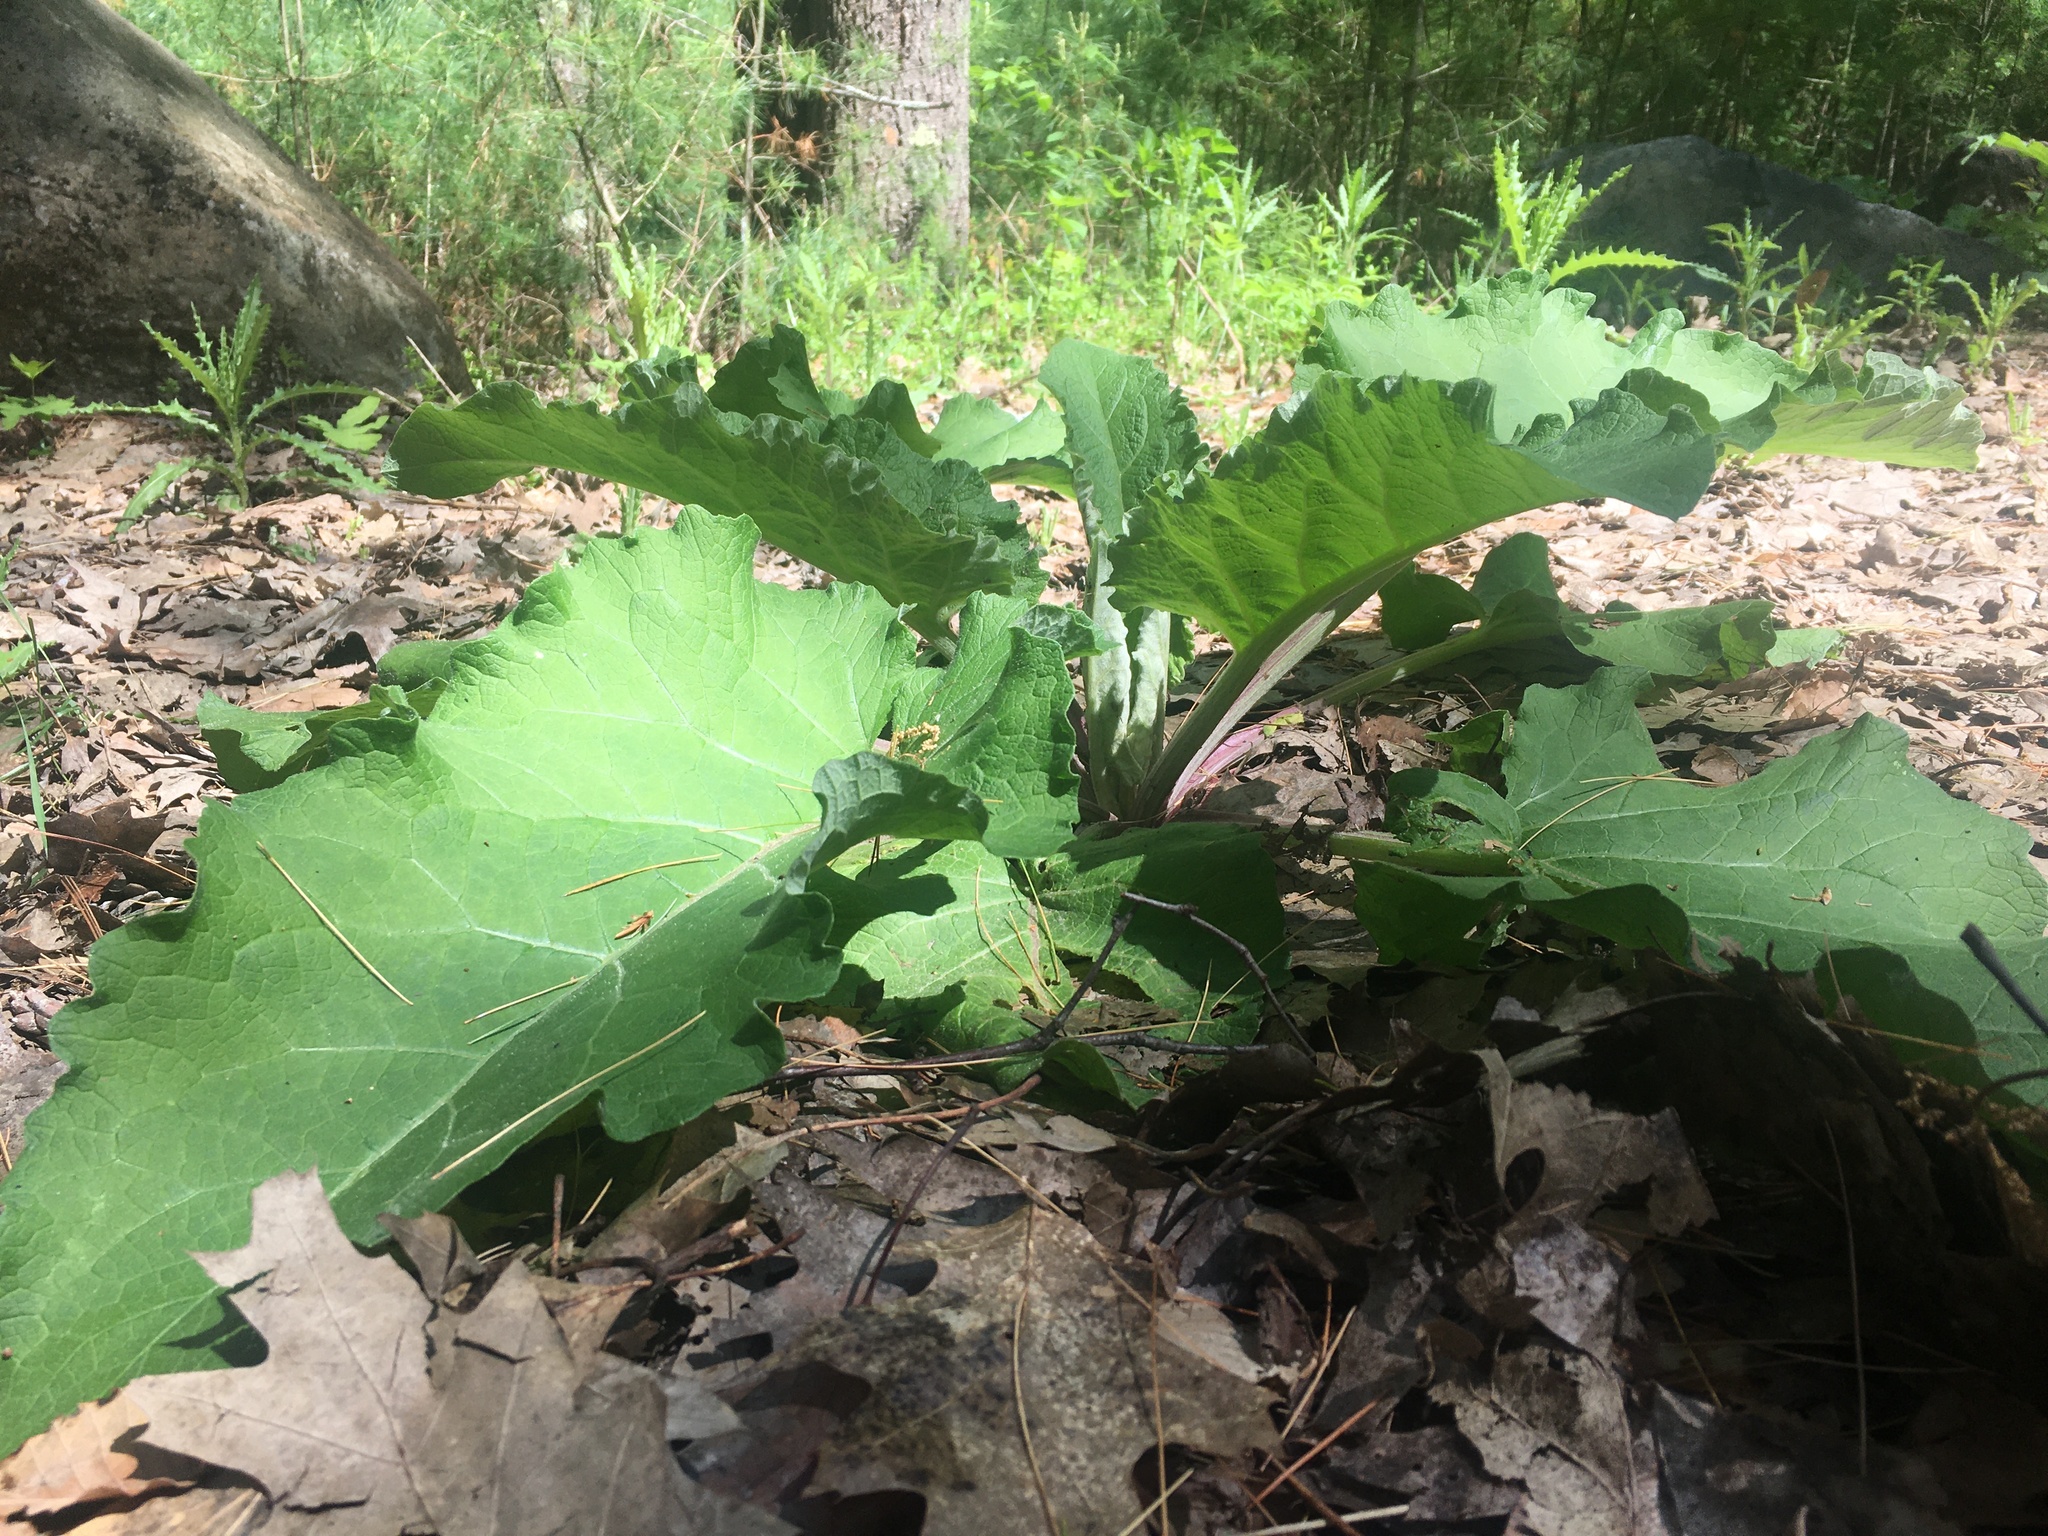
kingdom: Plantae
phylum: Tracheophyta
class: Magnoliopsida
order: Asterales
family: Asteraceae
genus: Arctium
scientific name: Arctium
